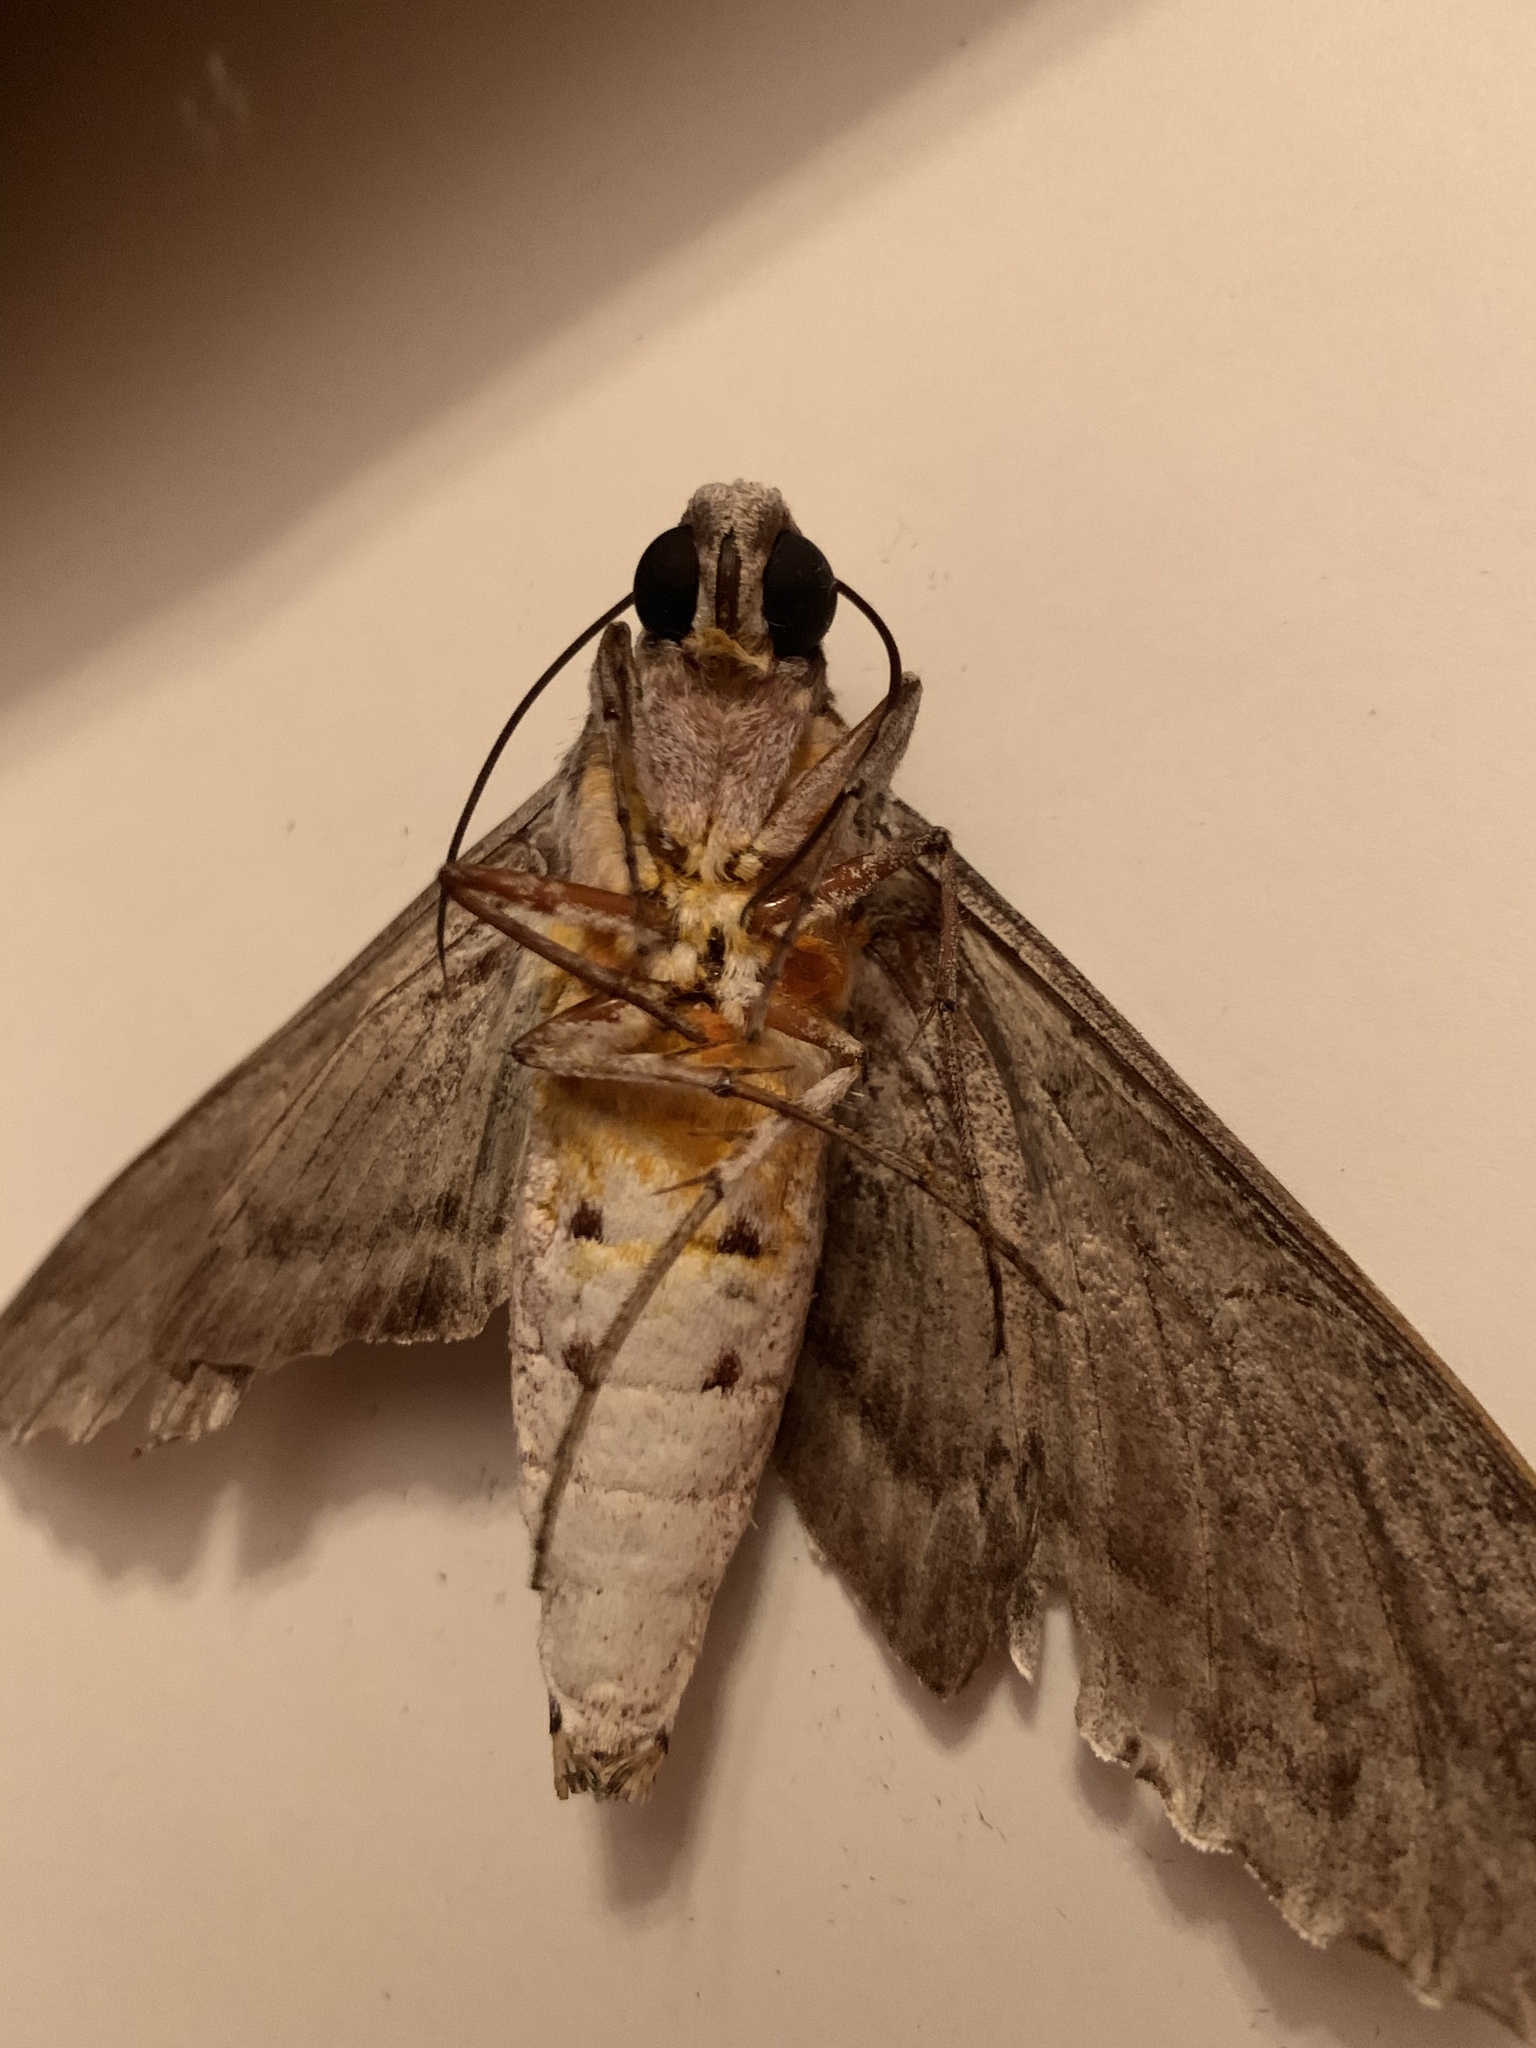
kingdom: Animalia
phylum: Arthropoda
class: Insecta
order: Lepidoptera
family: Sphingidae
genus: Pseudosphinx
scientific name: Pseudosphinx tetrio
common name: Tetrio sphinx
